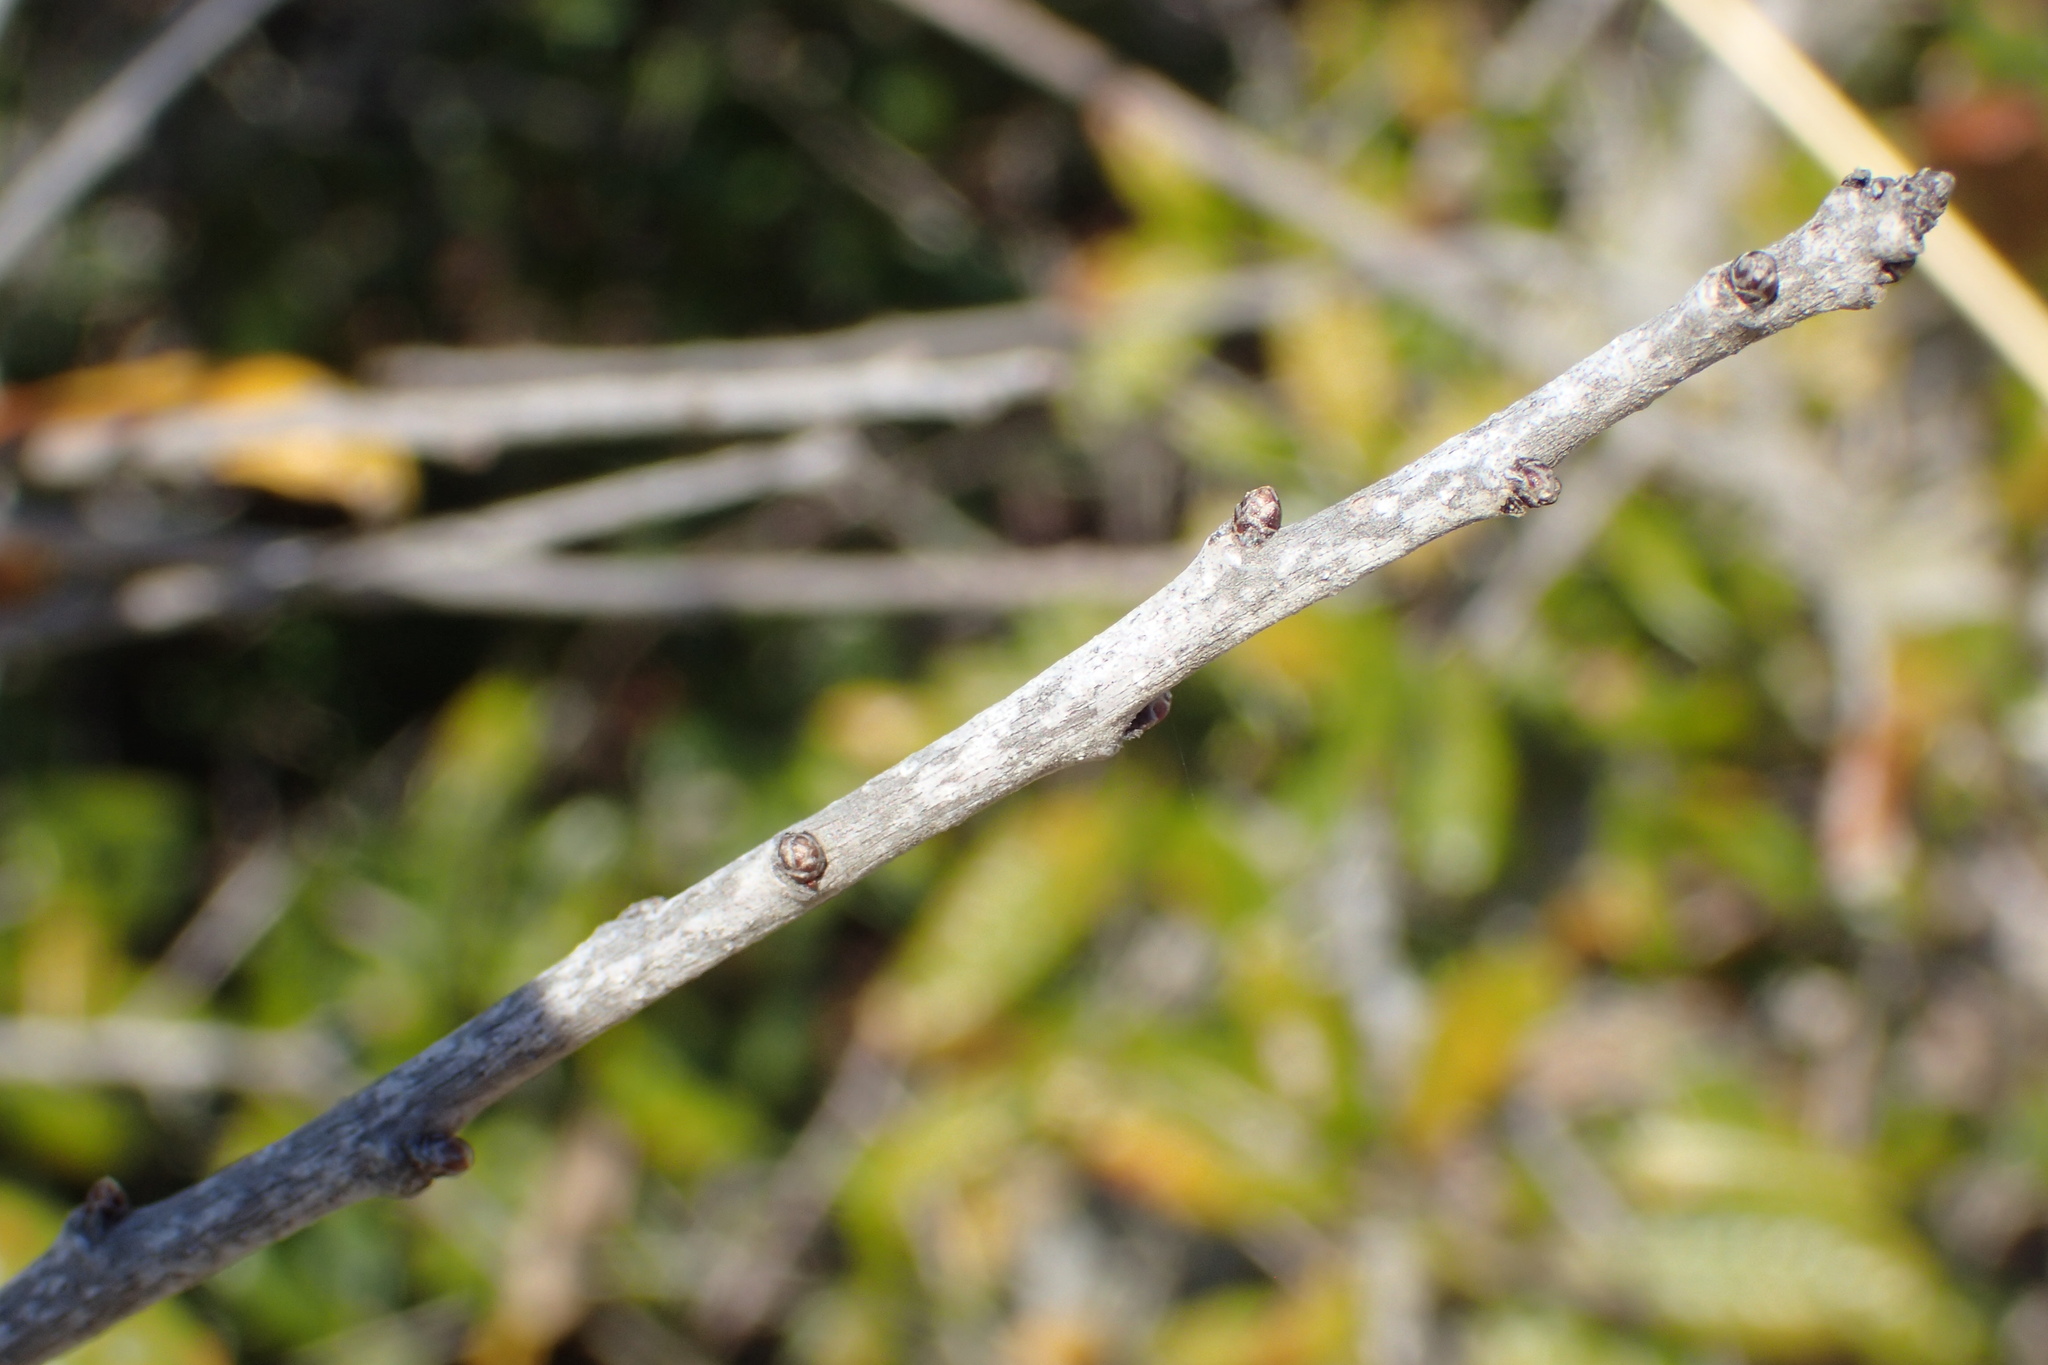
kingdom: Plantae
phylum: Tracheophyta
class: Magnoliopsida
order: Fagales
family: Fagaceae
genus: Quercus
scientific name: Quercus geminata
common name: Sand live oak
